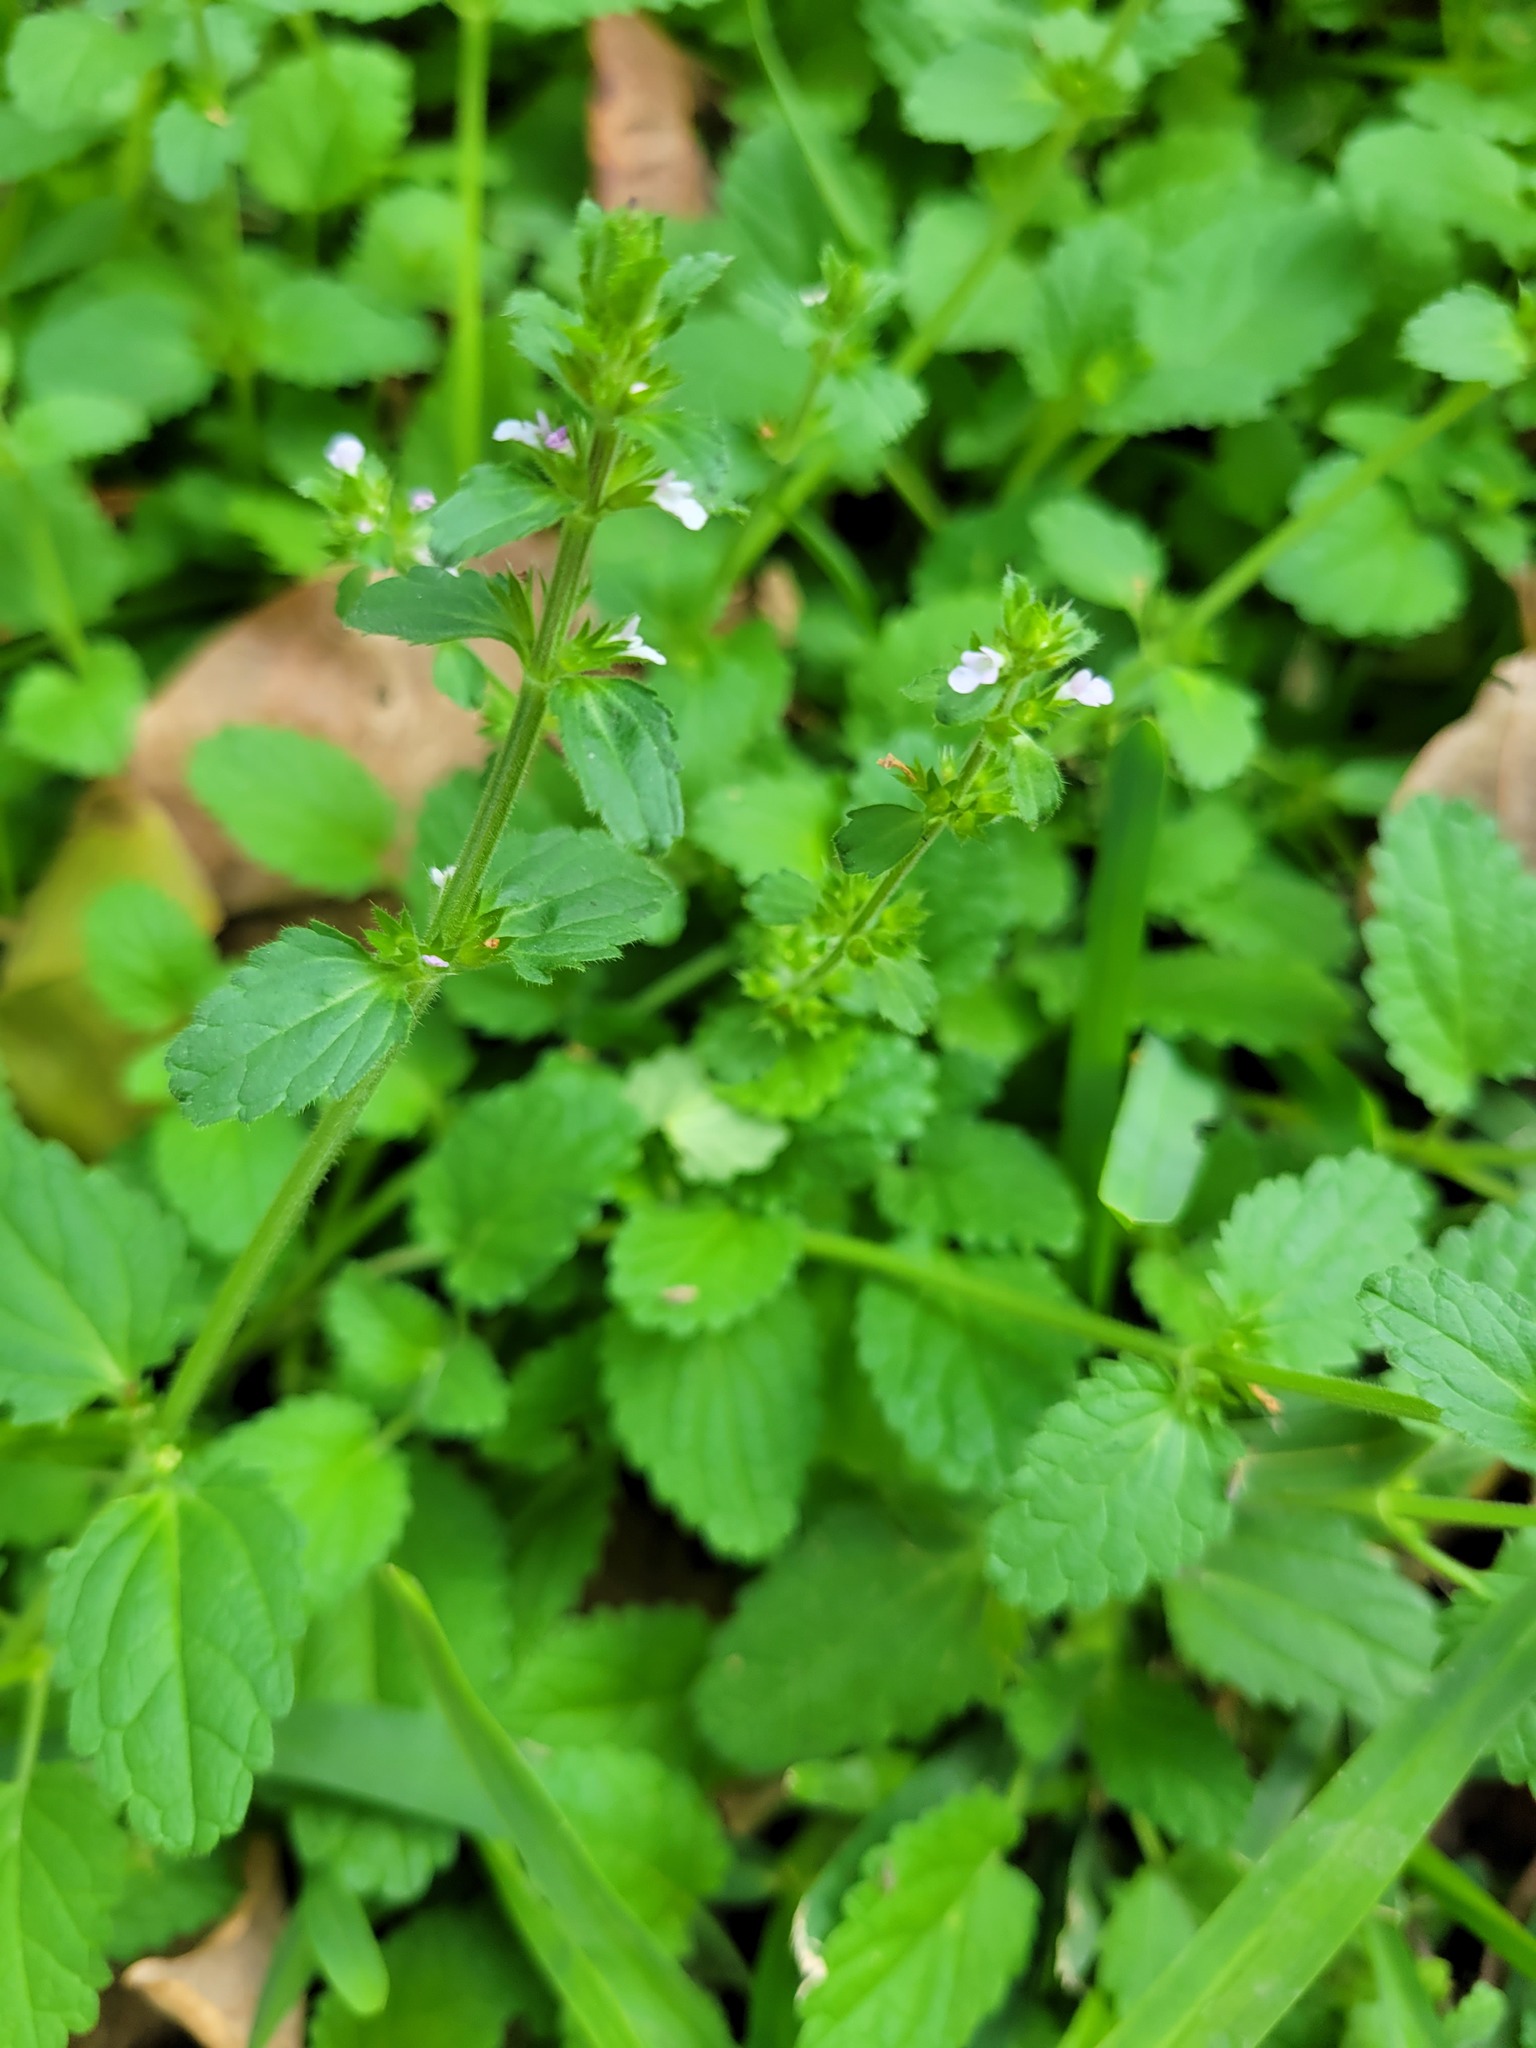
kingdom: Plantae
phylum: Tracheophyta
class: Magnoliopsida
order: Lamiales
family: Lamiaceae
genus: Stachys
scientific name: Stachys
